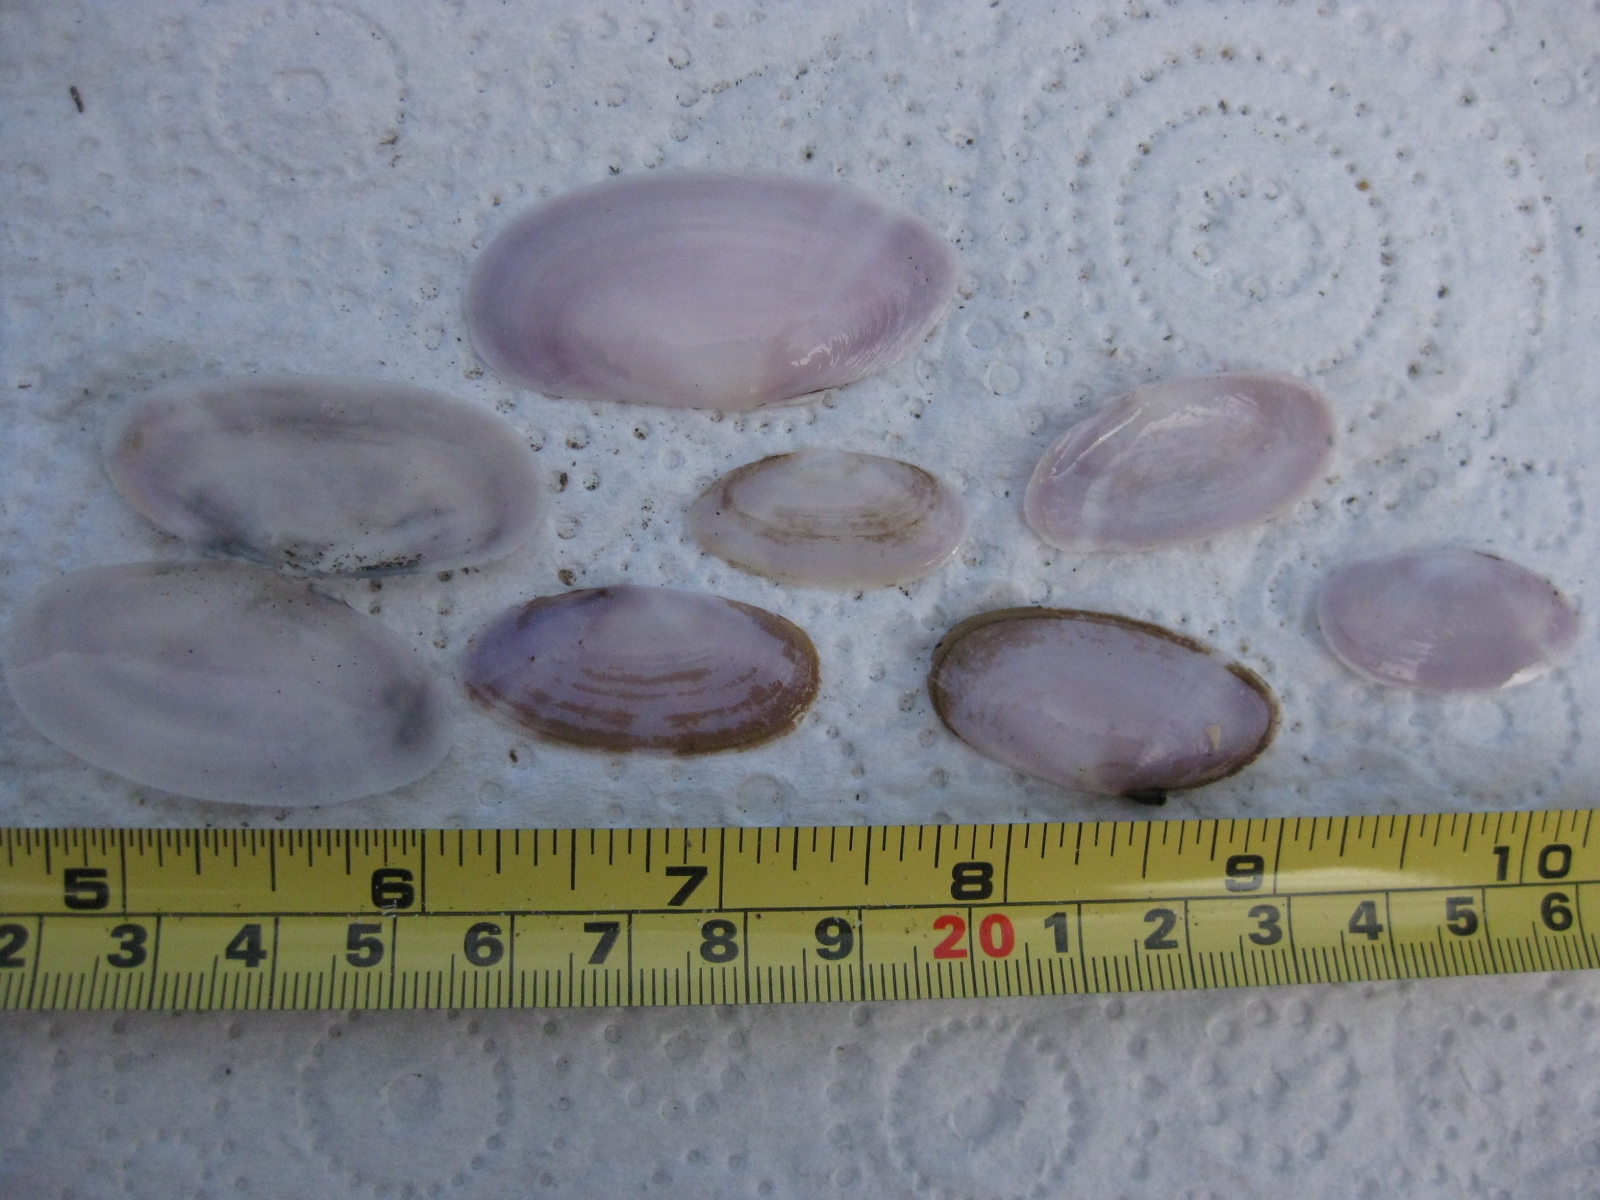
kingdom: Animalia
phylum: Mollusca
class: Bivalvia
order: Cardiida
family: Psammobiidae
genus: Hiatula
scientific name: Hiatula nitida
